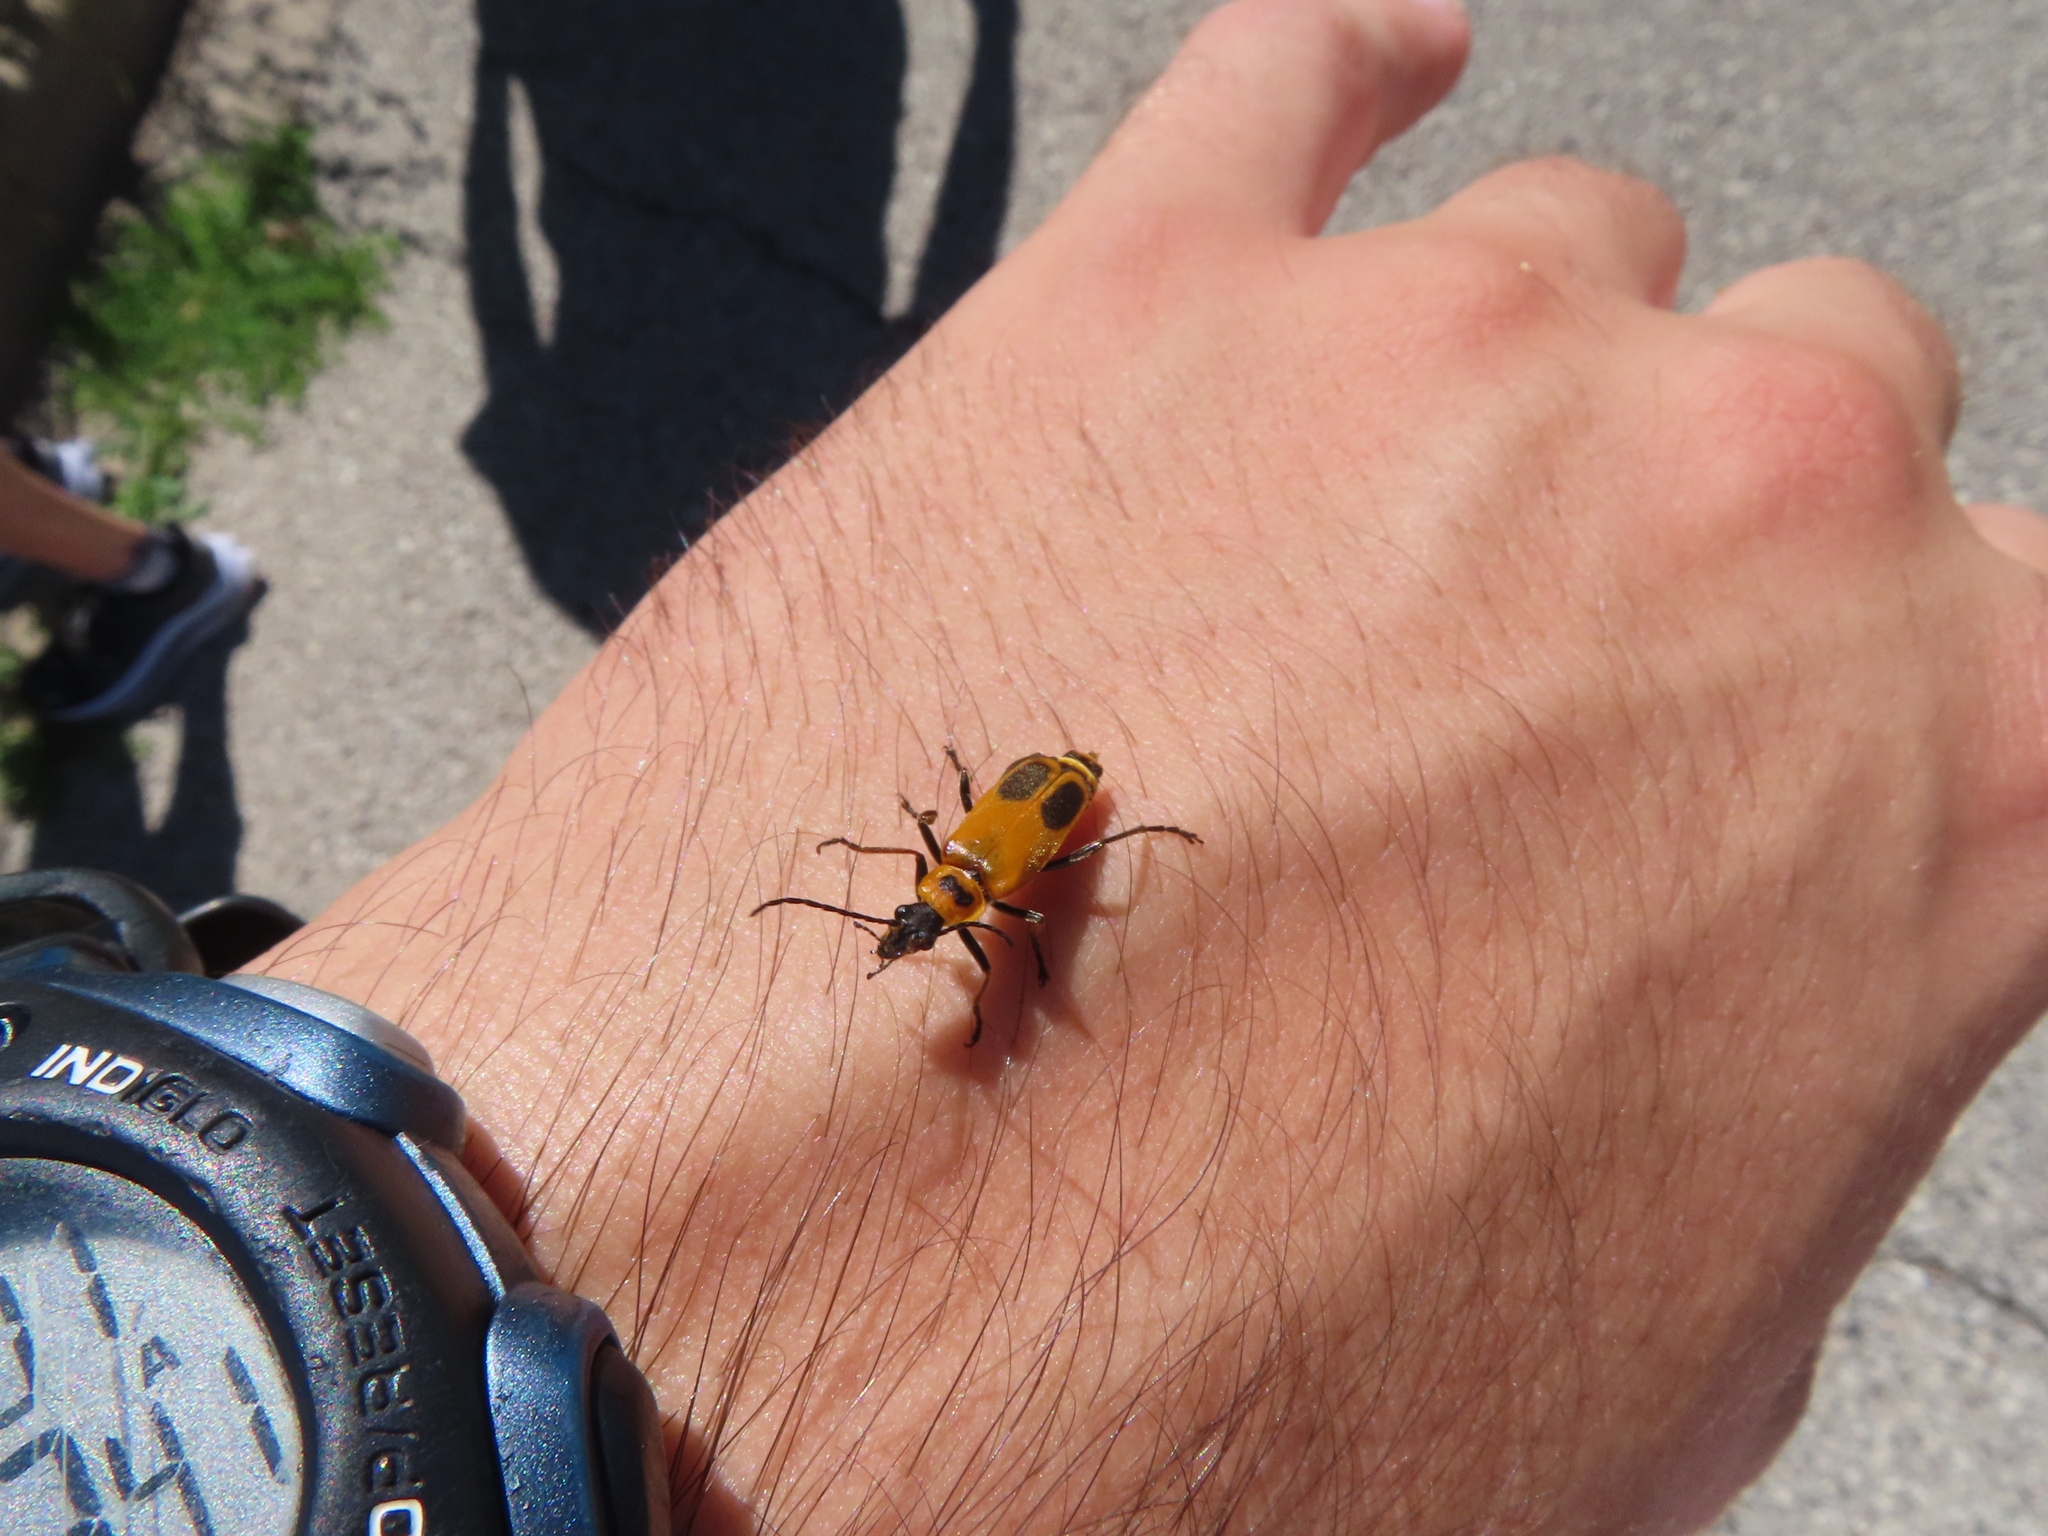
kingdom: Animalia
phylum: Arthropoda
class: Insecta
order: Coleoptera
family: Cantharidae
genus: Chauliognathus
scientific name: Chauliognathus pensylvanicus
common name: Goldenrod soldier beetle
